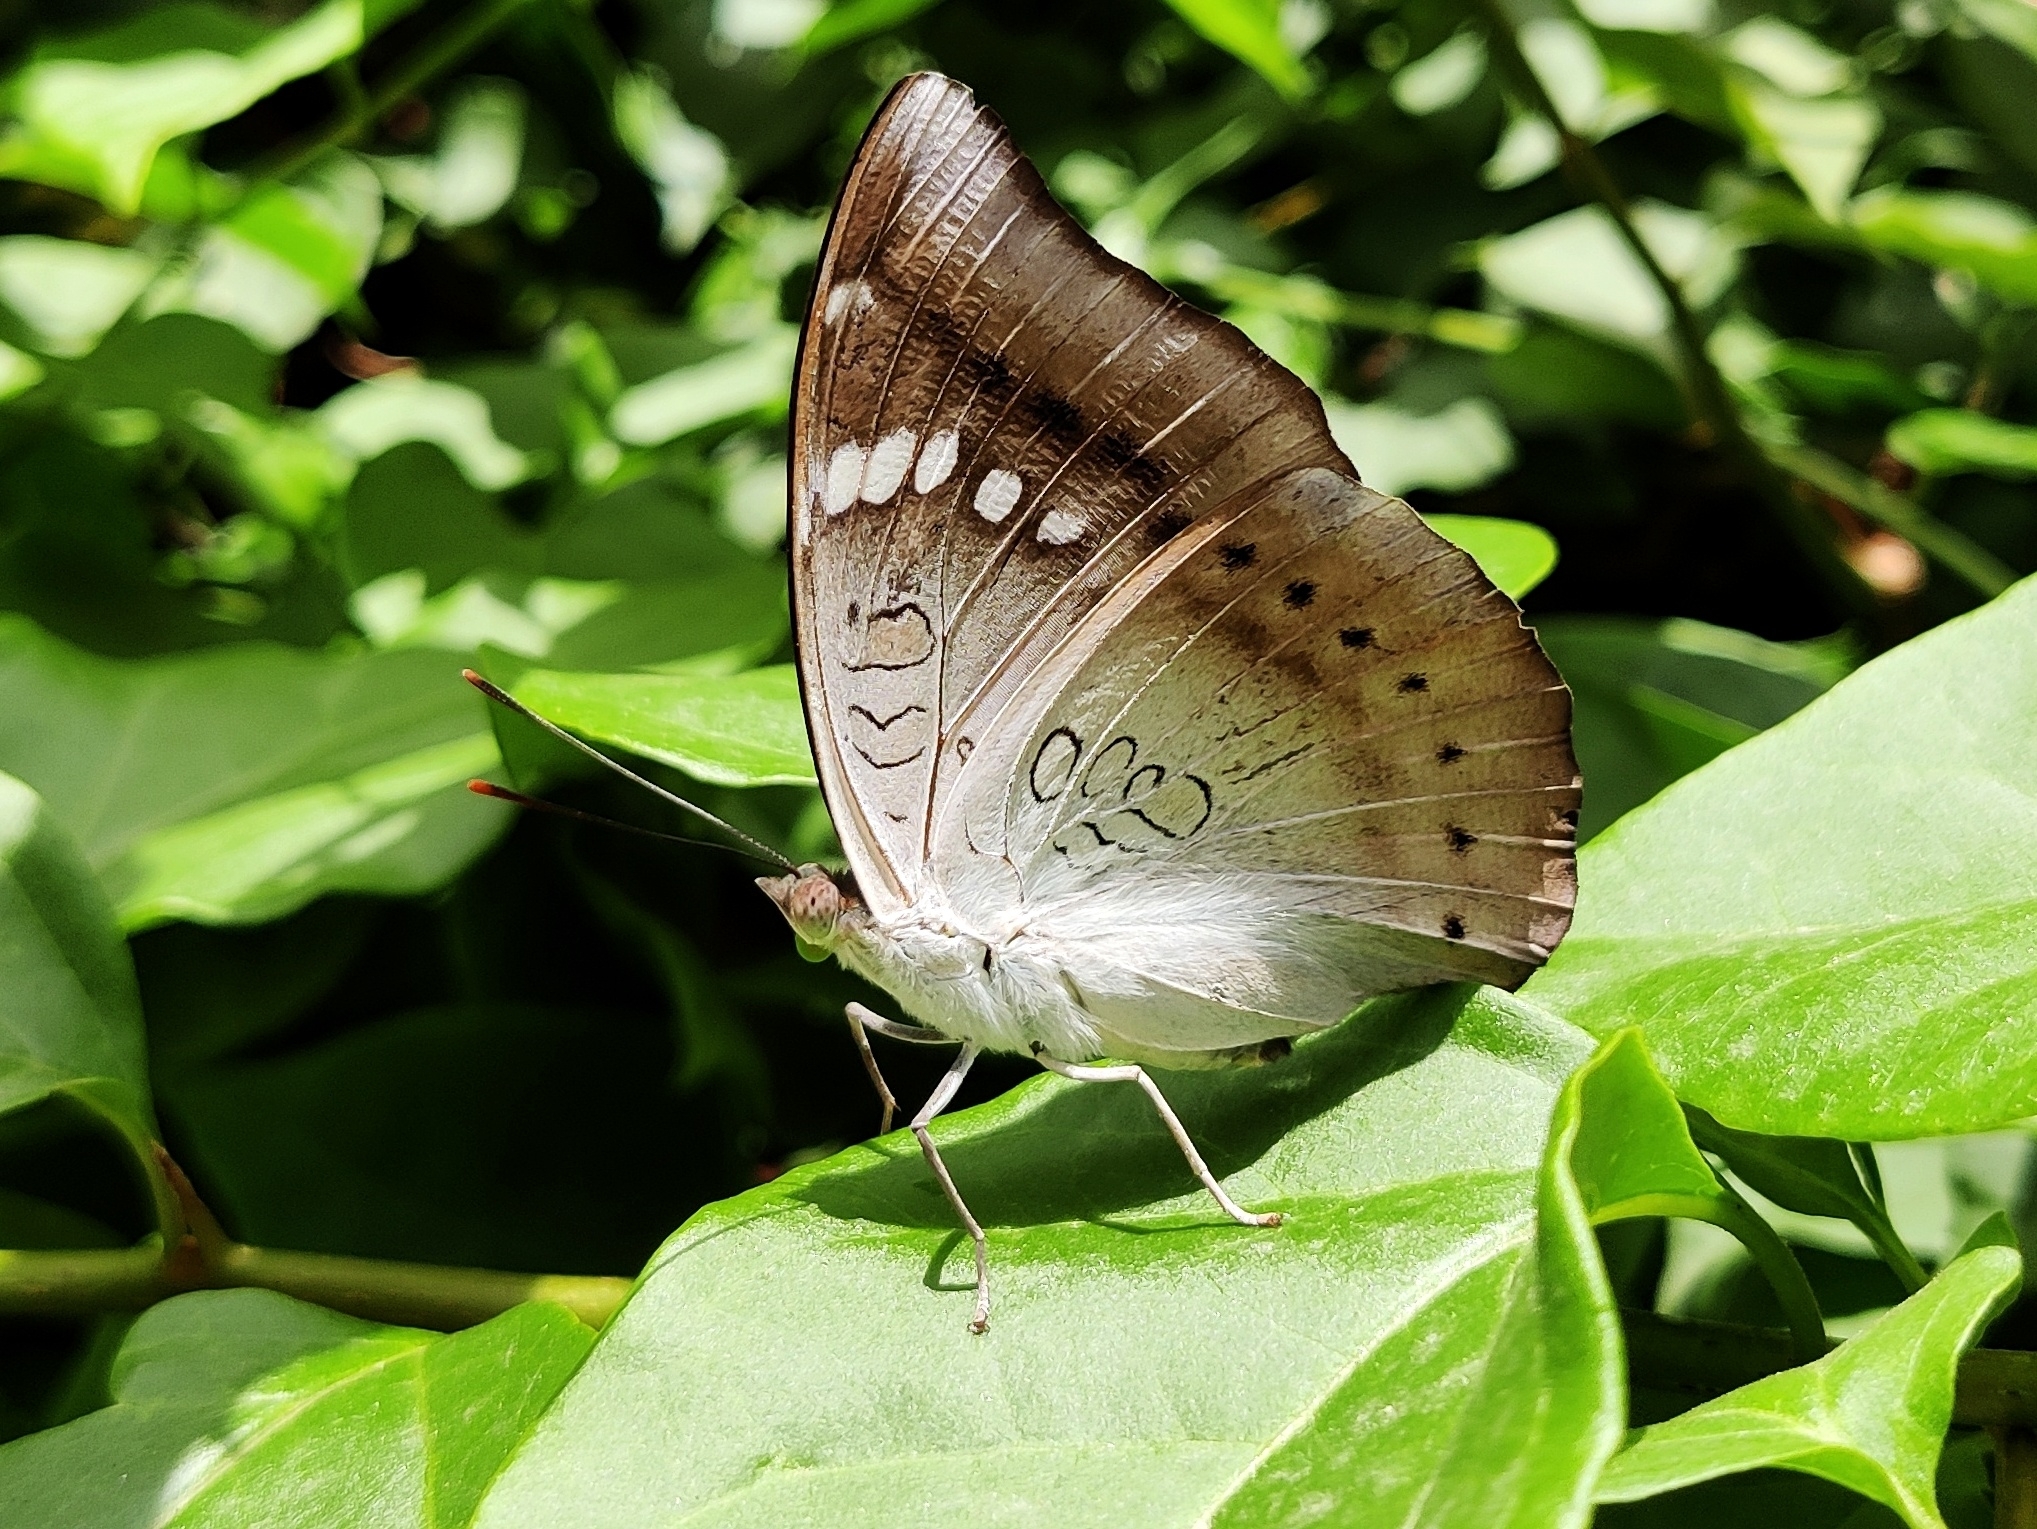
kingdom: Animalia
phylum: Arthropoda
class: Insecta
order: Lepidoptera
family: Nymphalidae
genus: Euthalia
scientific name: Euthalia aconthea
